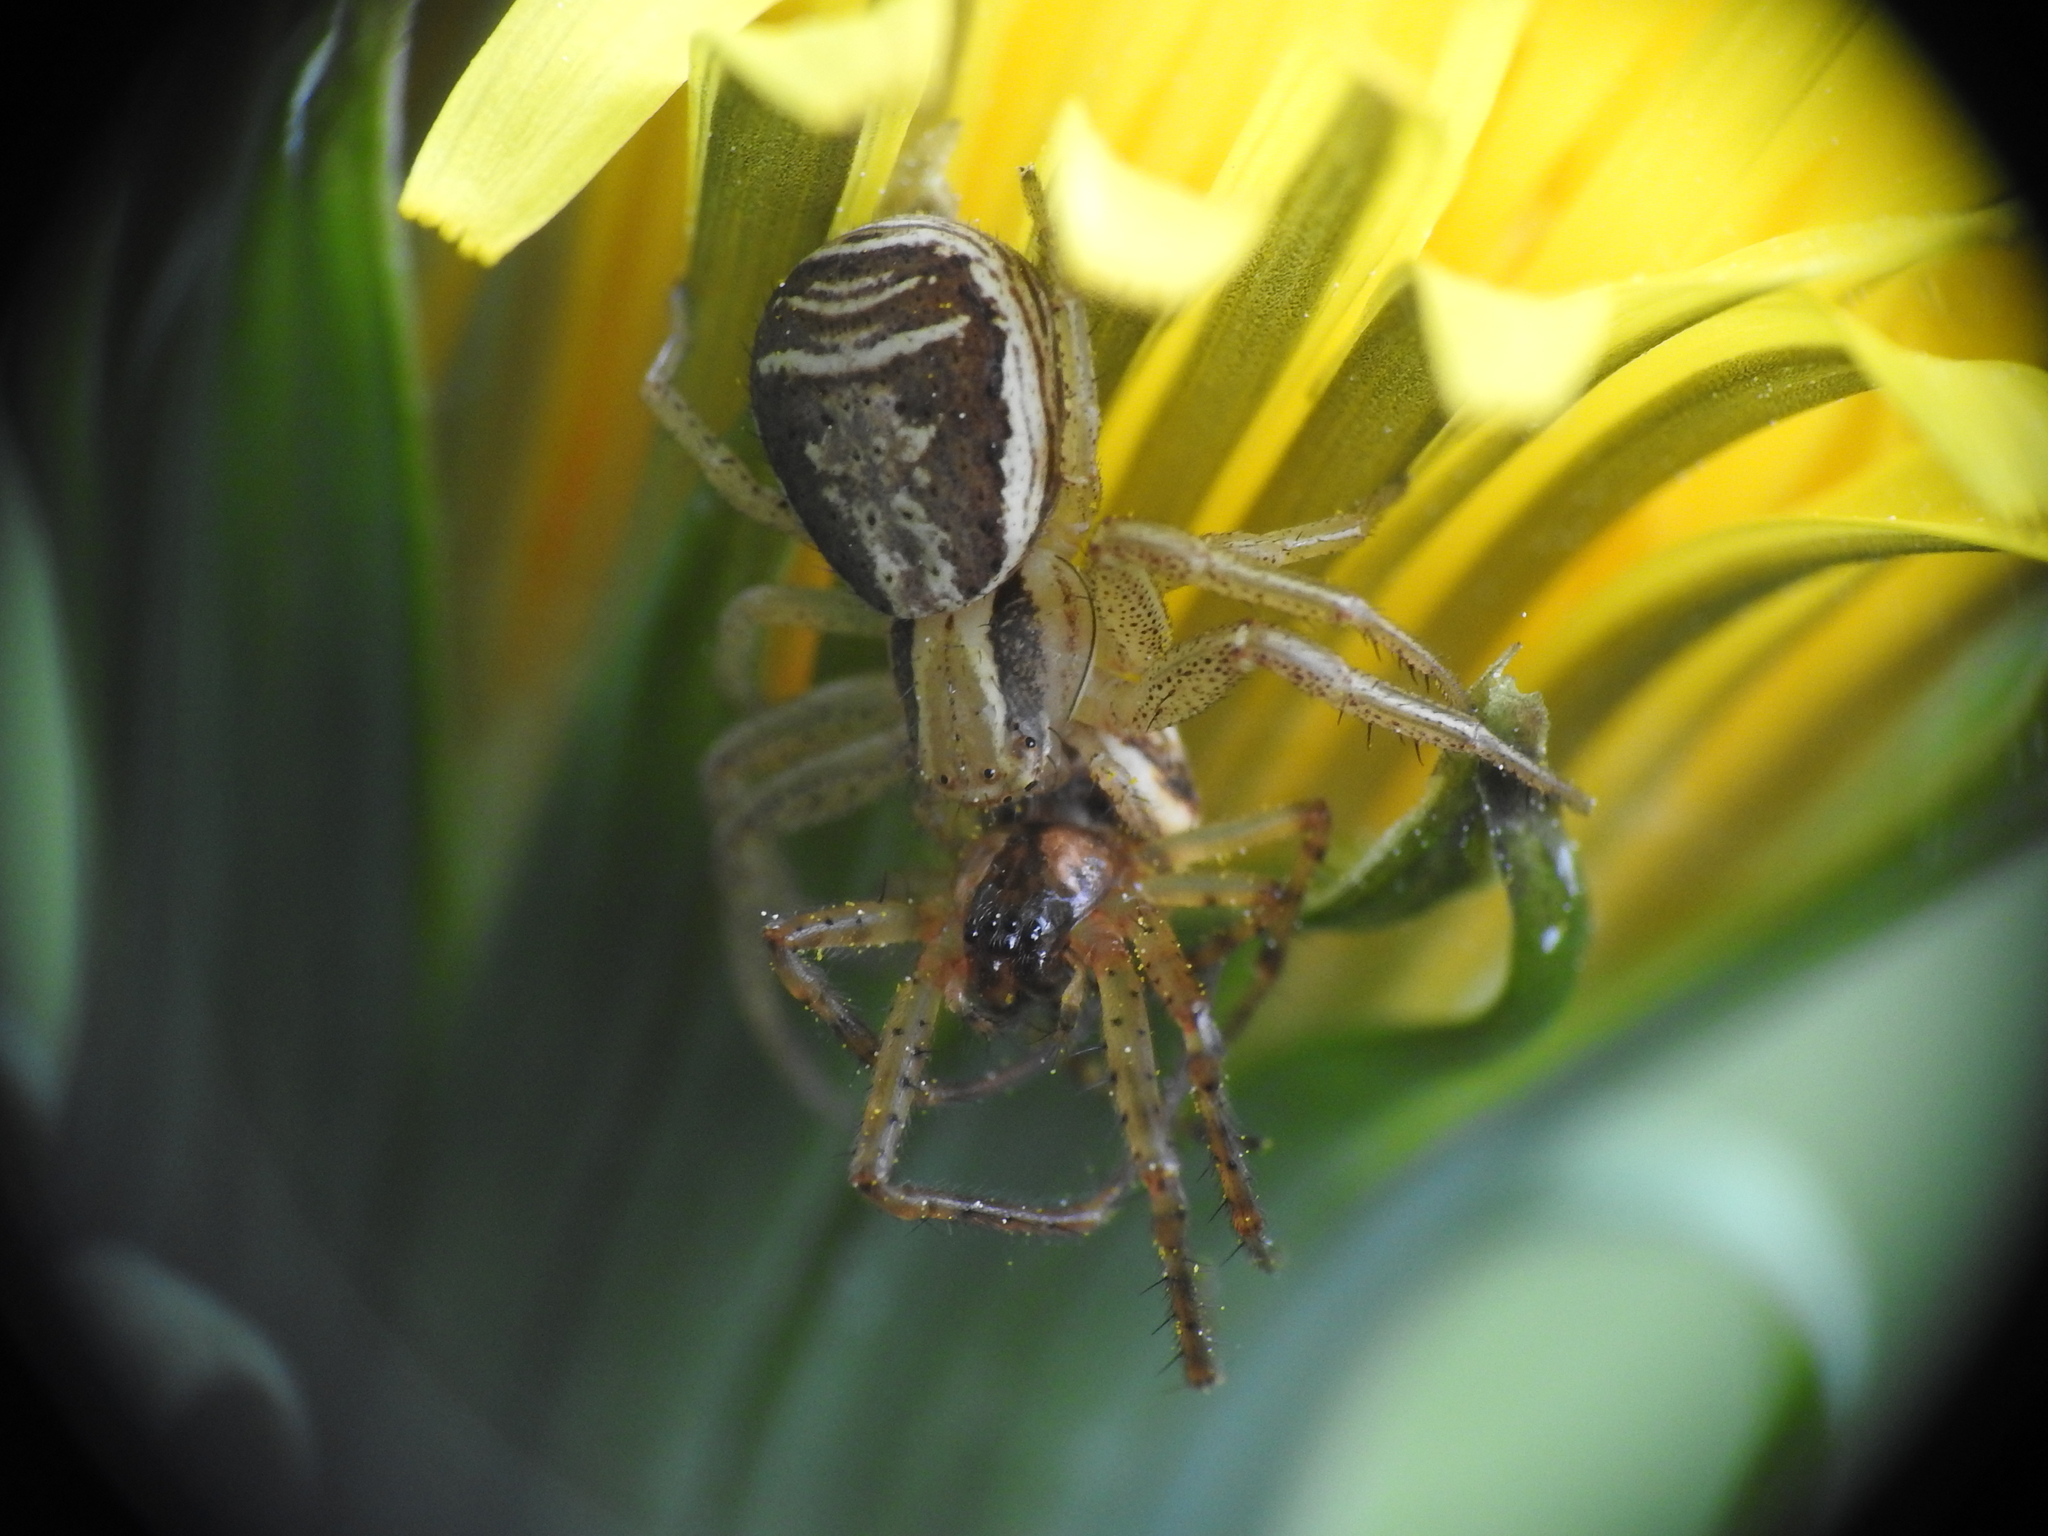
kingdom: Animalia
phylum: Arthropoda
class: Arachnida
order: Araneae
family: Thomisidae
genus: Xysticus
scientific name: Xysticus ulmi
